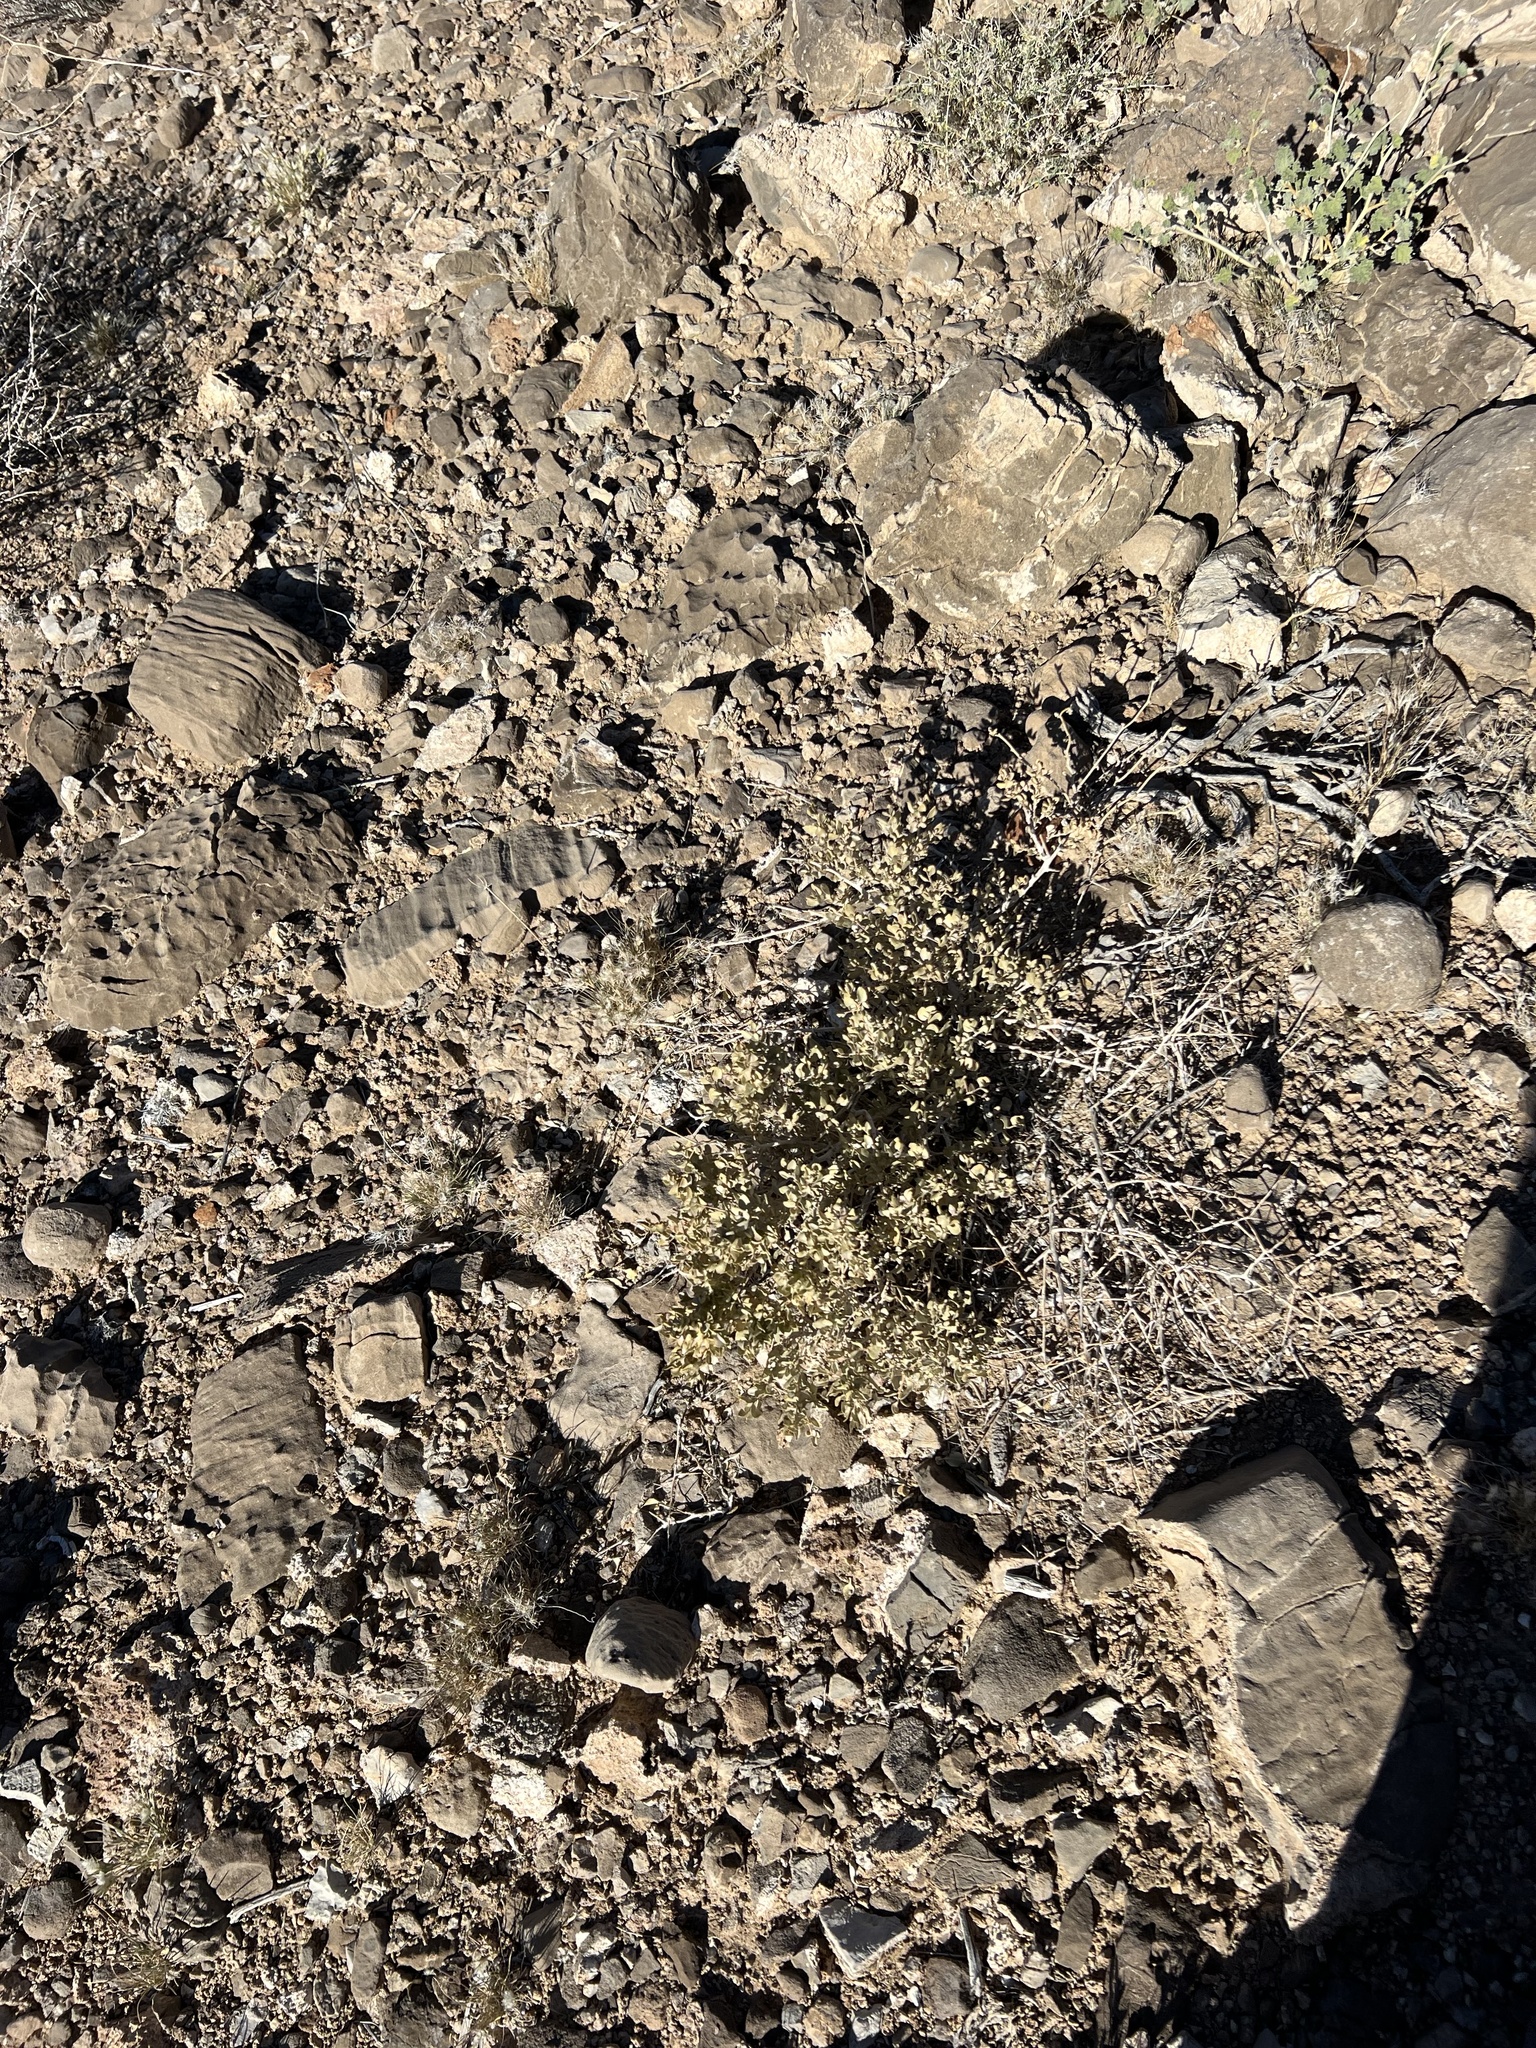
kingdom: Plantae
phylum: Tracheophyta
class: Magnoliopsida
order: Caryophyllales
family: Amaranthaceae
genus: Atriplex
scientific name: Atriplex confertifolia
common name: Shadscale
